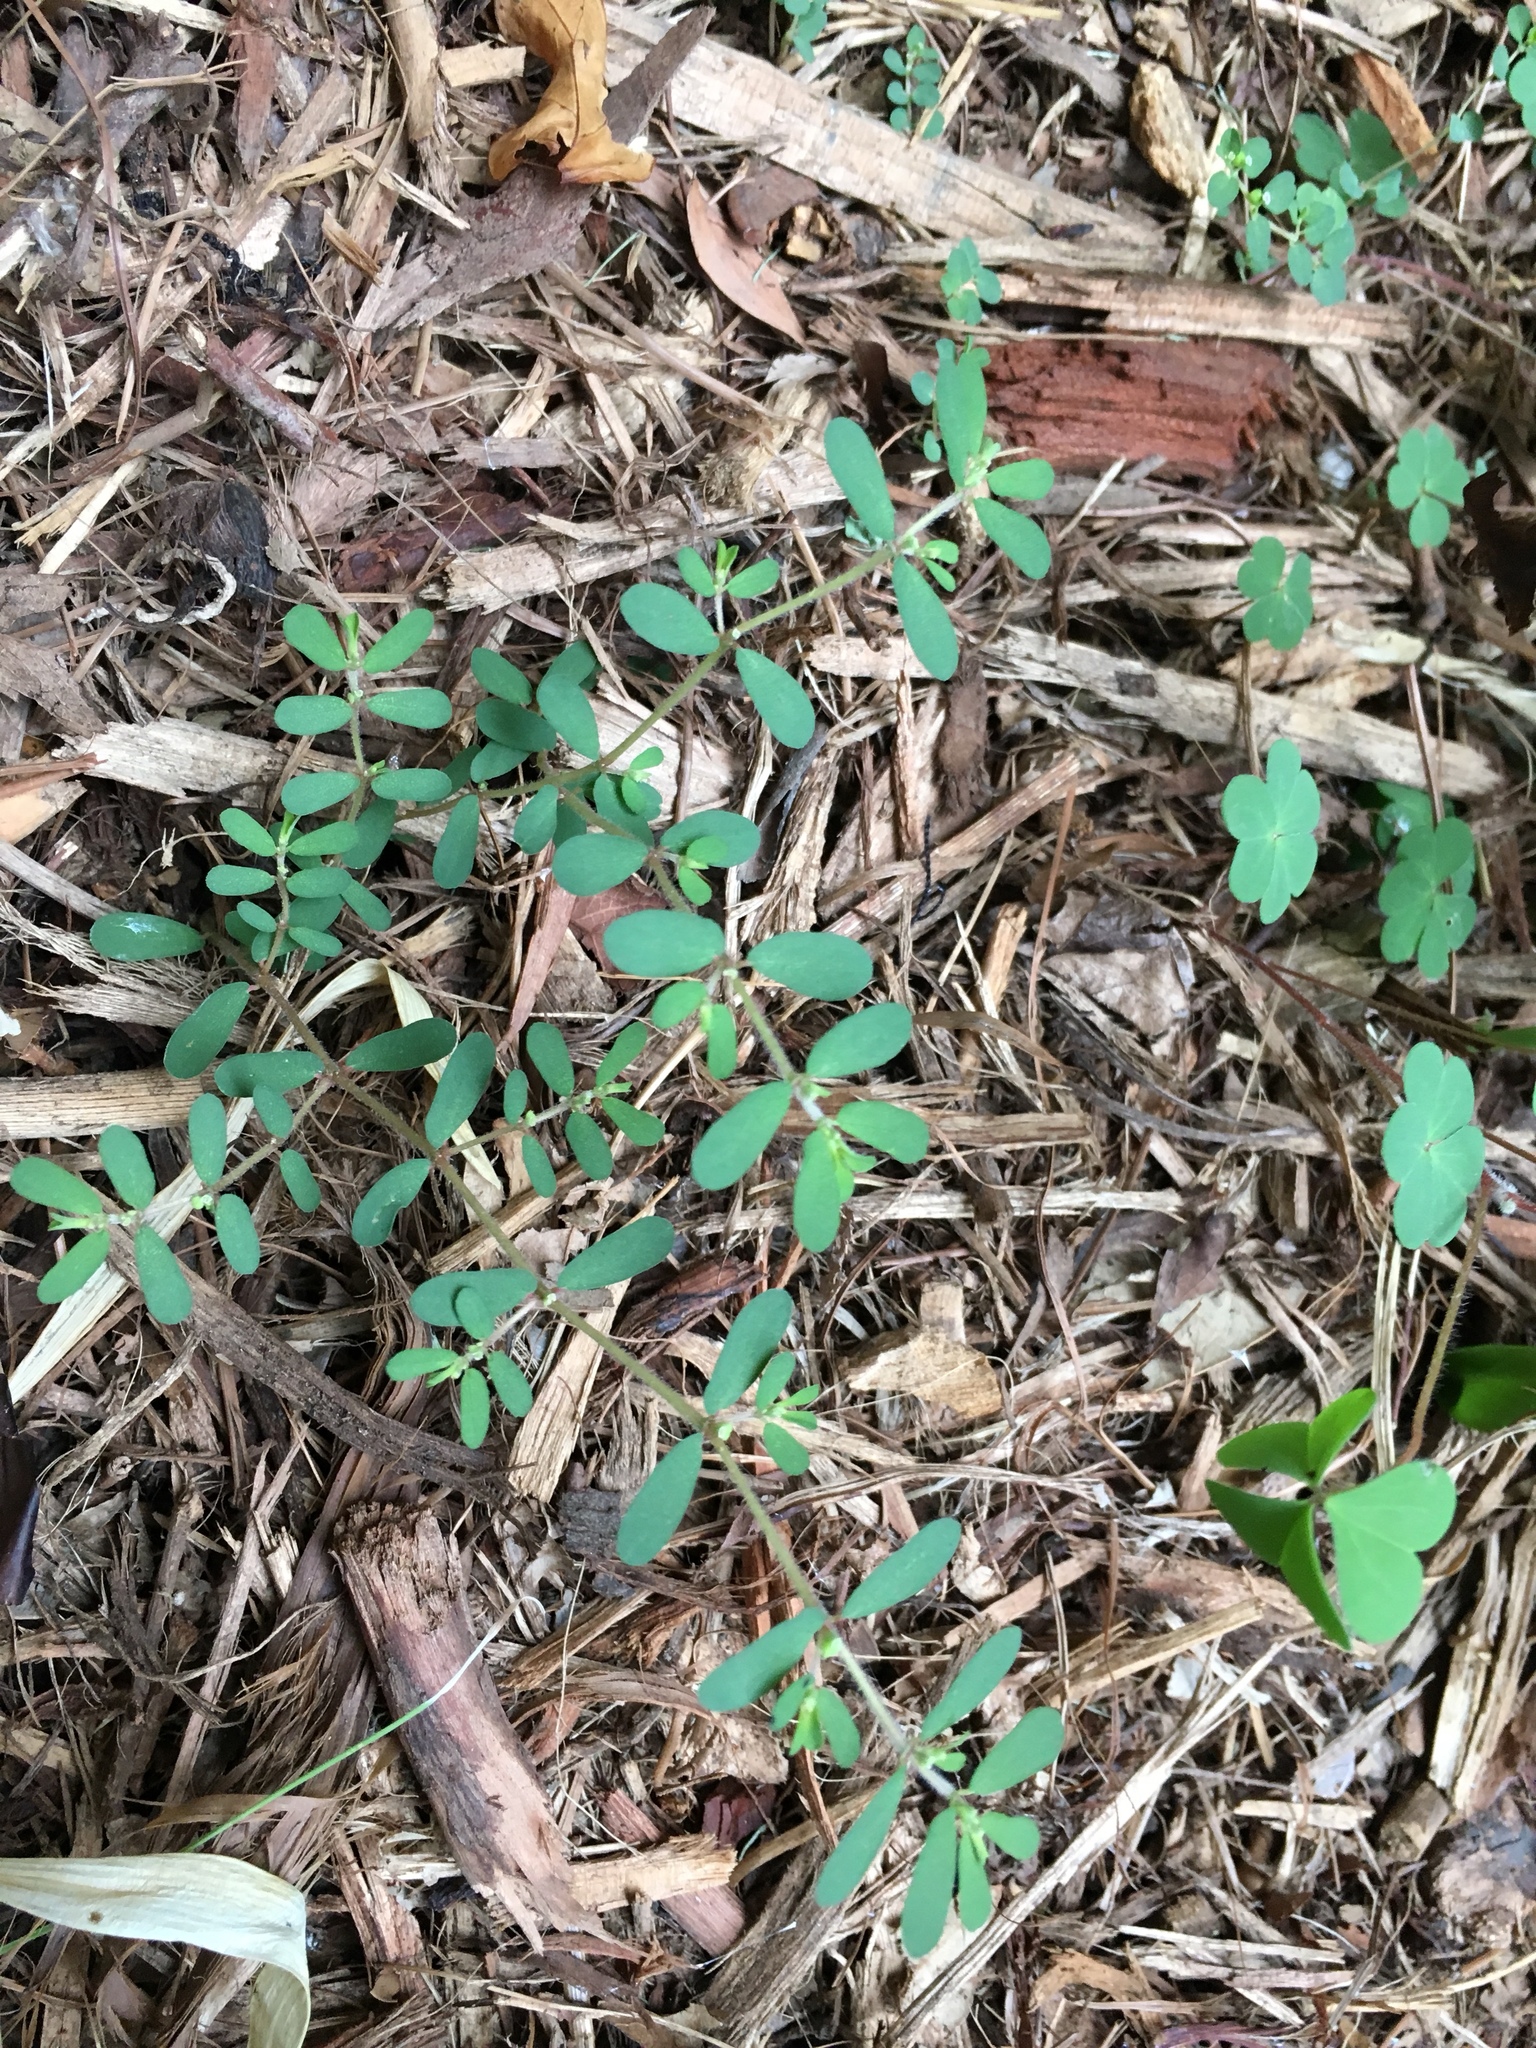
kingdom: Plantae
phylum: Tracheophyta
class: Magnoliopsida
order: Malpighiales
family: Euphorbiaceae
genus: Euphorbia
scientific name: Euphorbia maculata
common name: Spotted spurge
